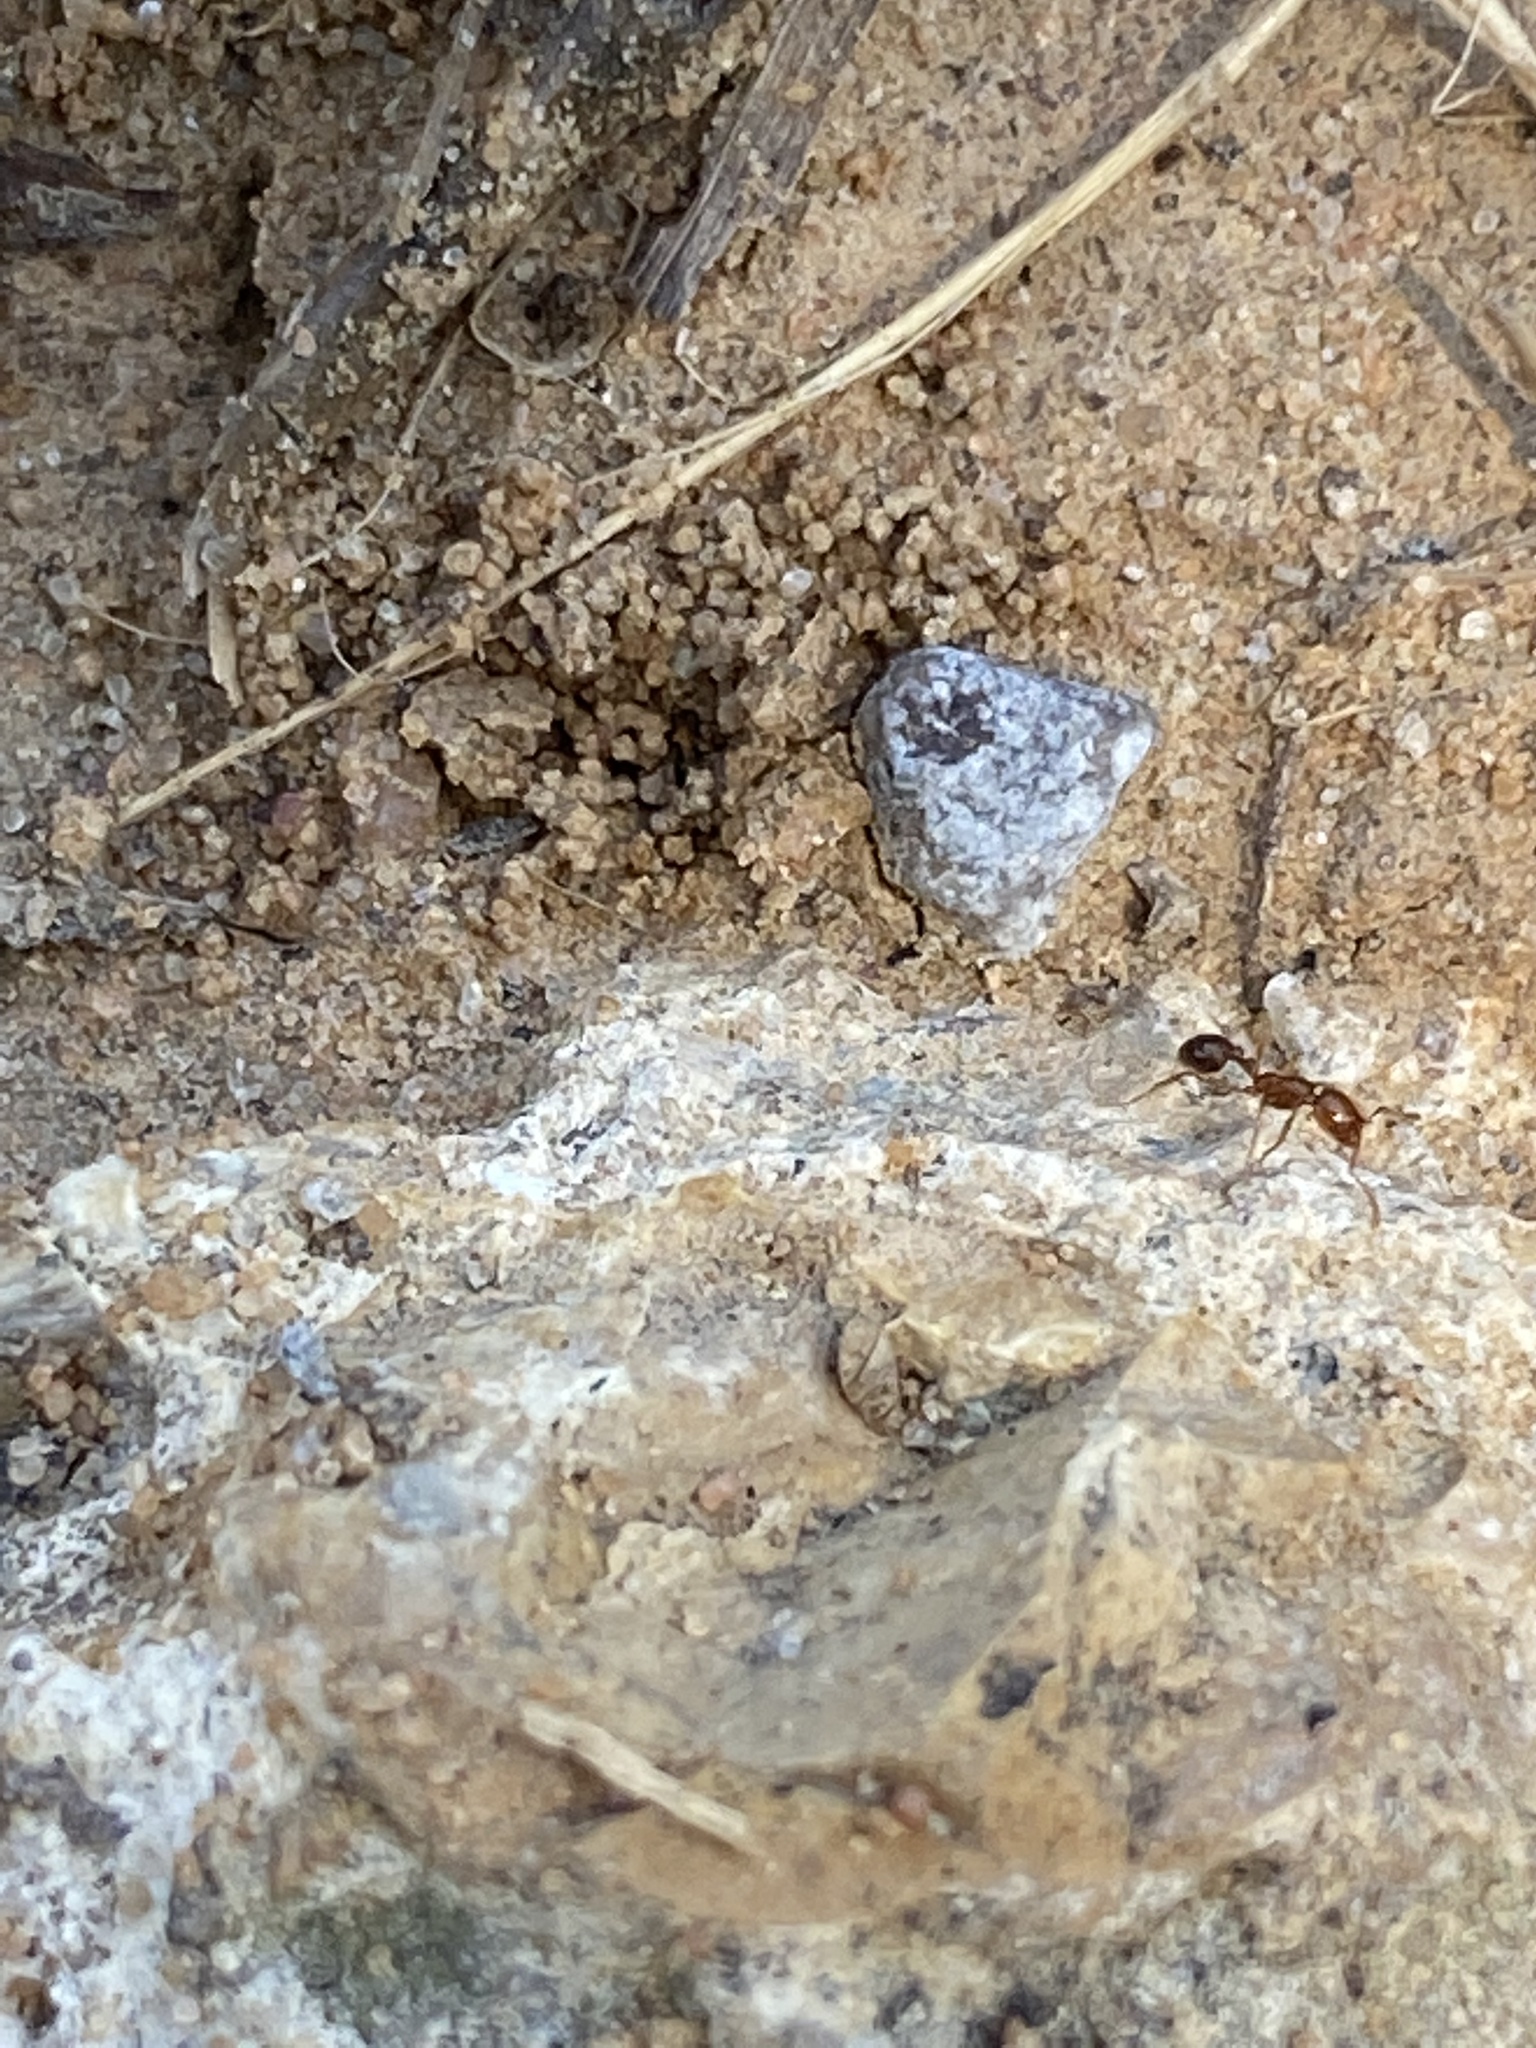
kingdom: Animalia
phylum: Arthropoda
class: Insecta
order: Hymenoptera
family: Formicidae
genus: Solenopsis
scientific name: Solenopsis invicta
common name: Red imported fire ant
